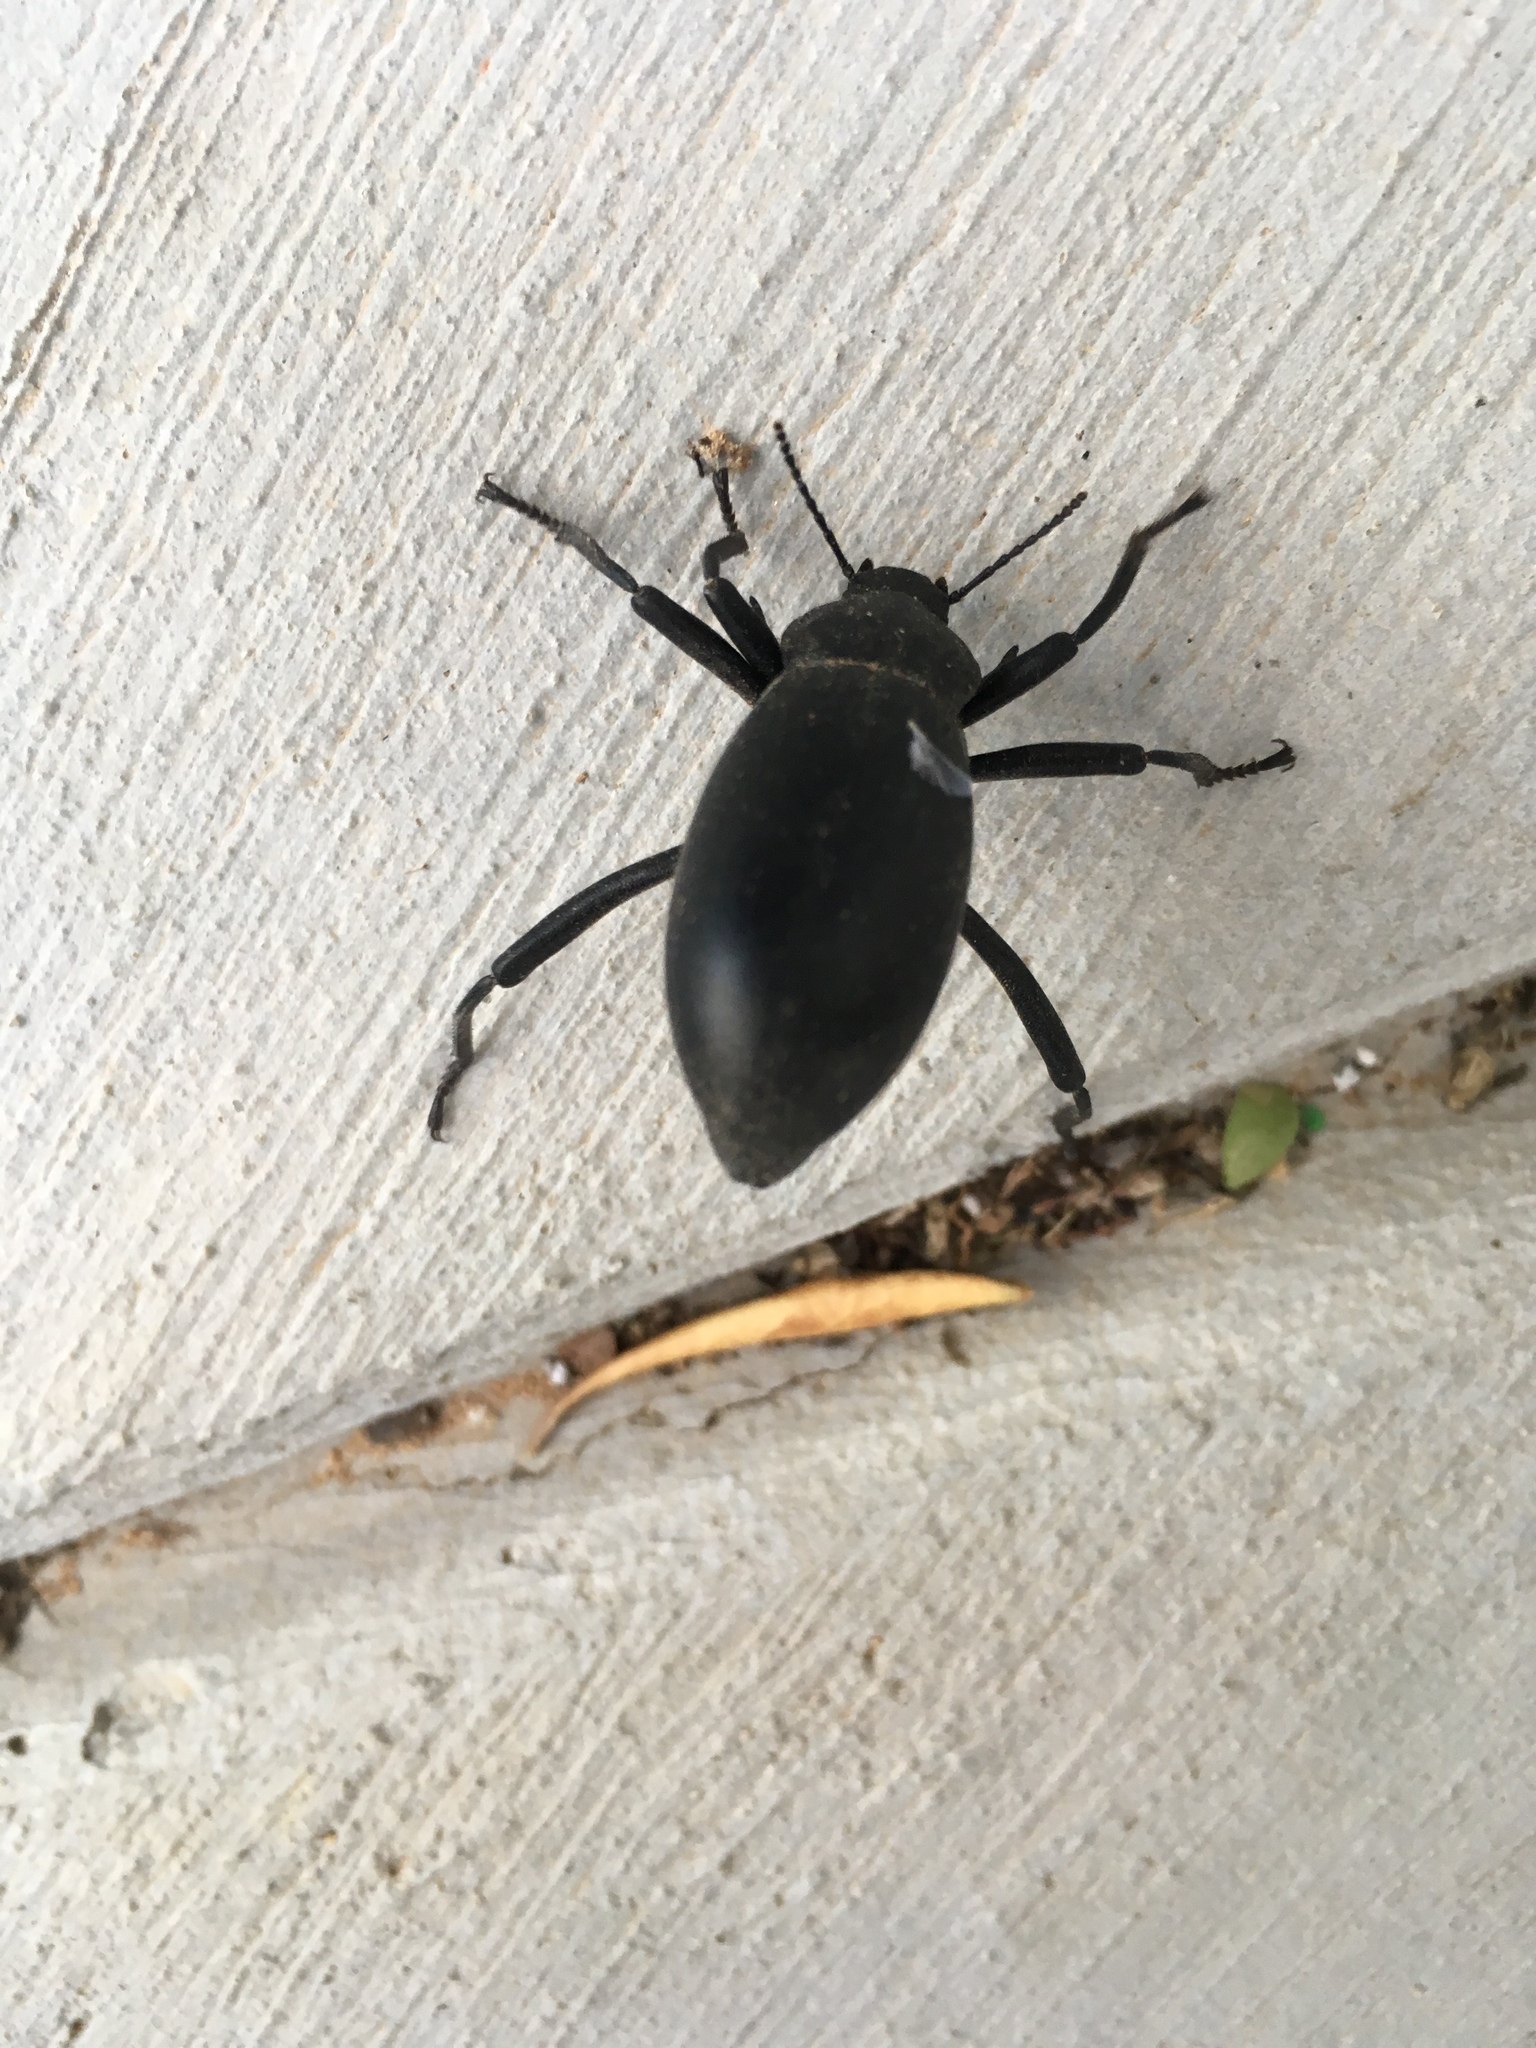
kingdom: Animalia
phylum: Arthropoda
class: Insecta
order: Coleoptera
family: Tenebrionidae
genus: Eleodes
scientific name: Eleodes armata
